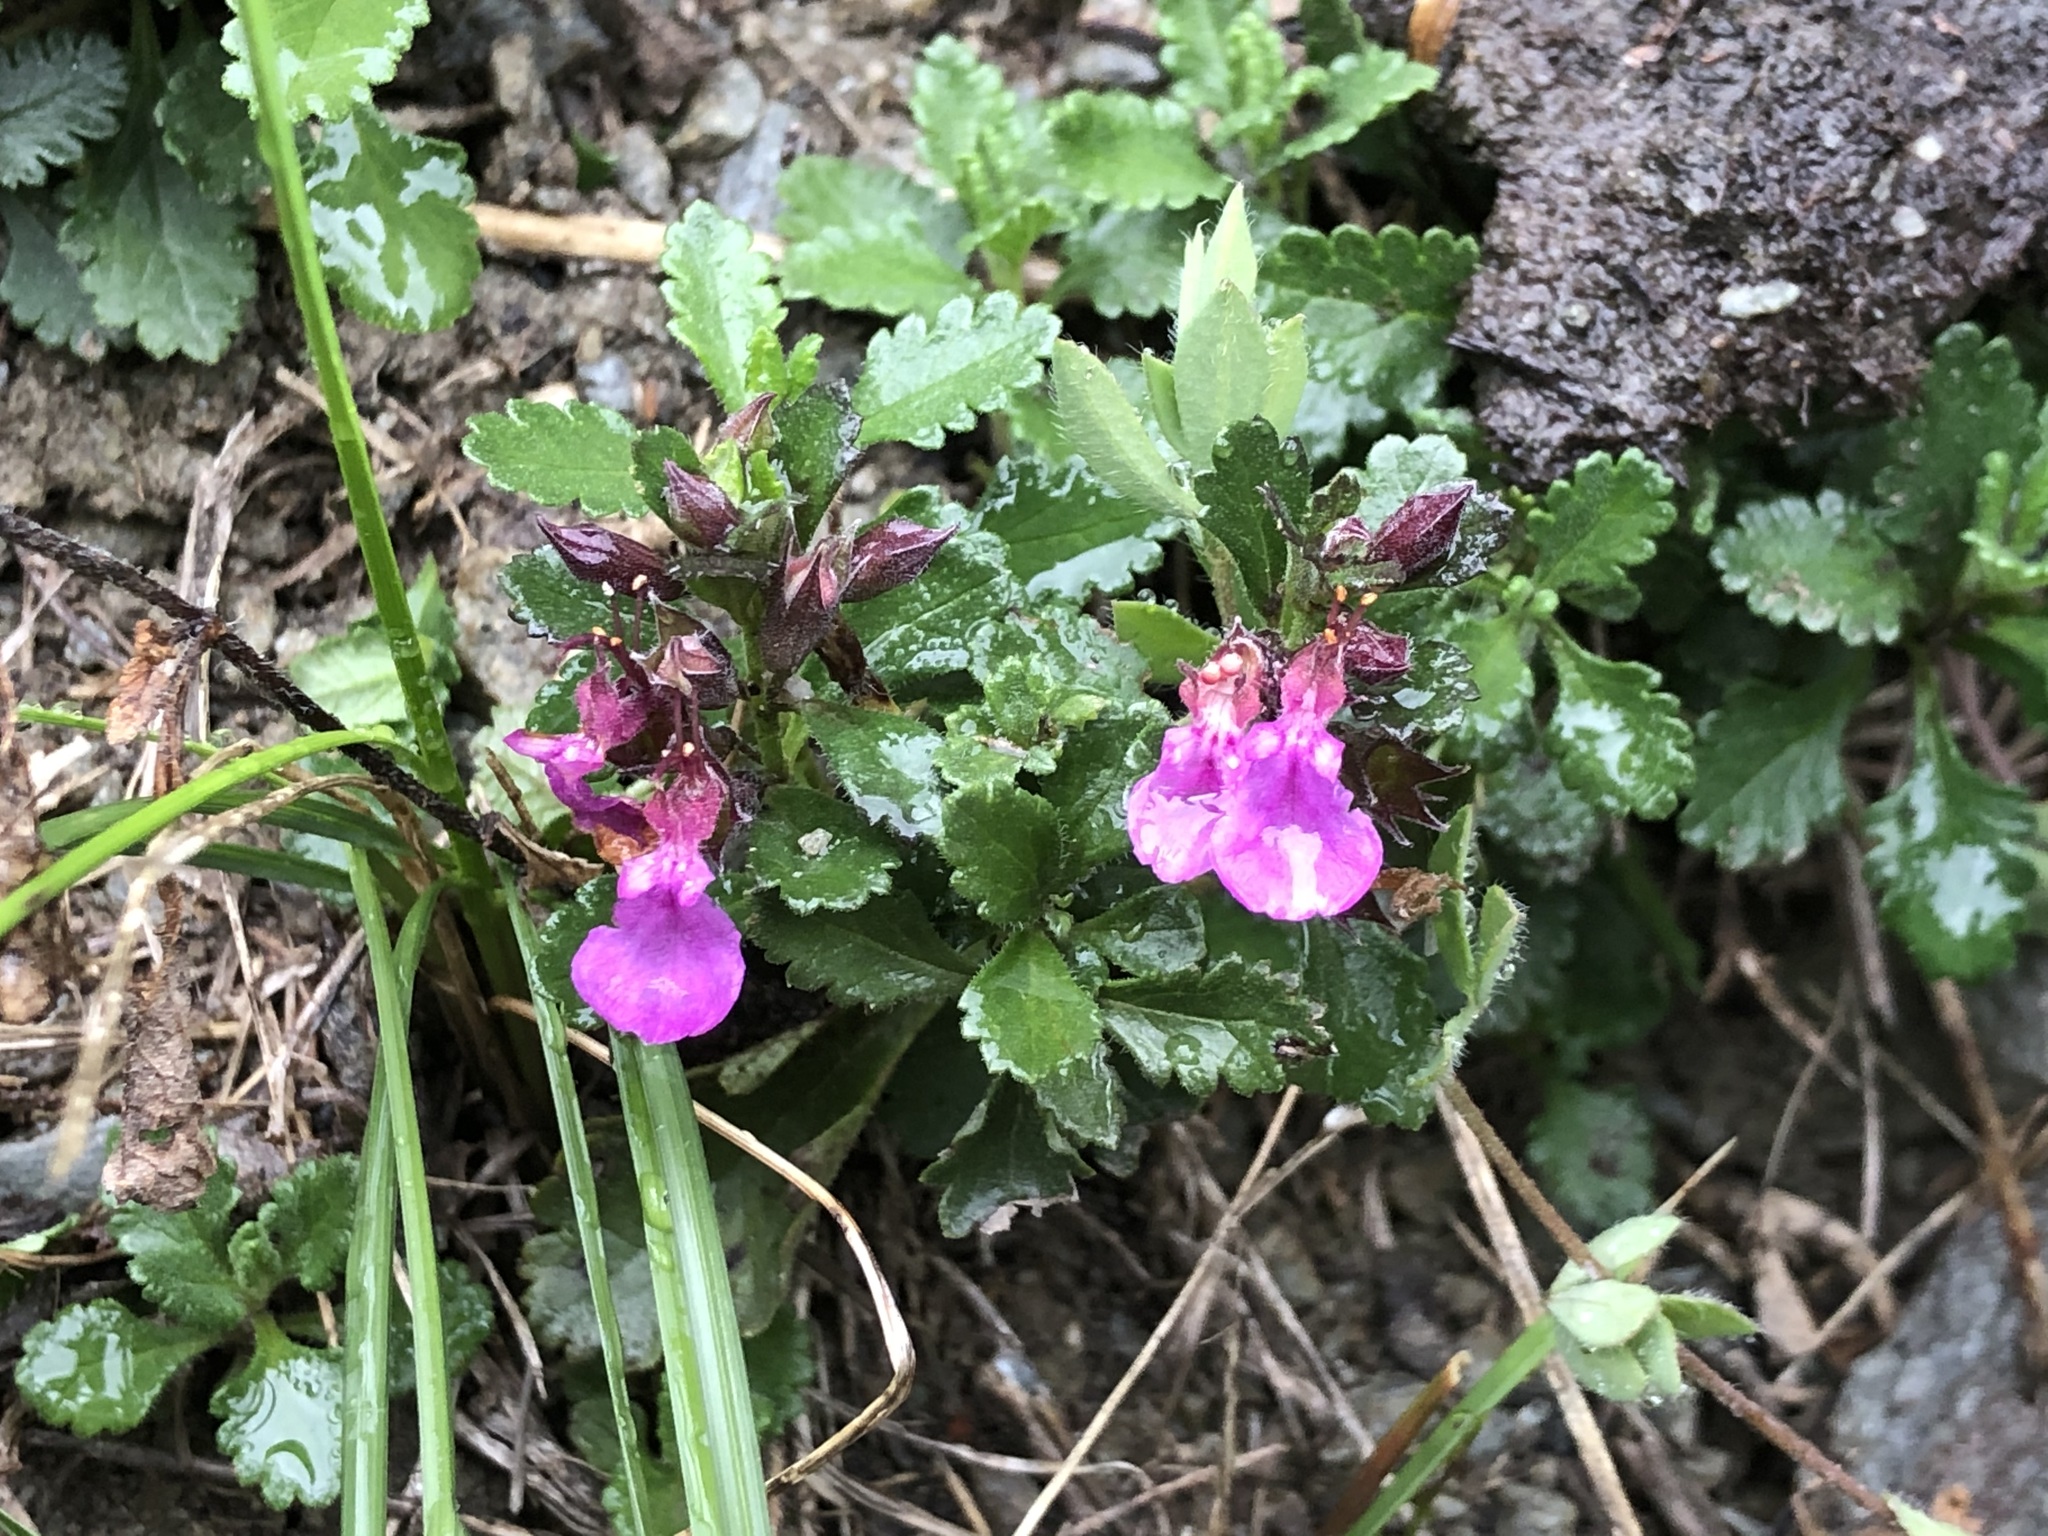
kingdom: Plantae
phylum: Tracheophyta
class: Magnoliopsida
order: Lamiales
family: Lamiaceae
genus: Teucrium
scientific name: Teucrium chamaedrys
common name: Wall germander
